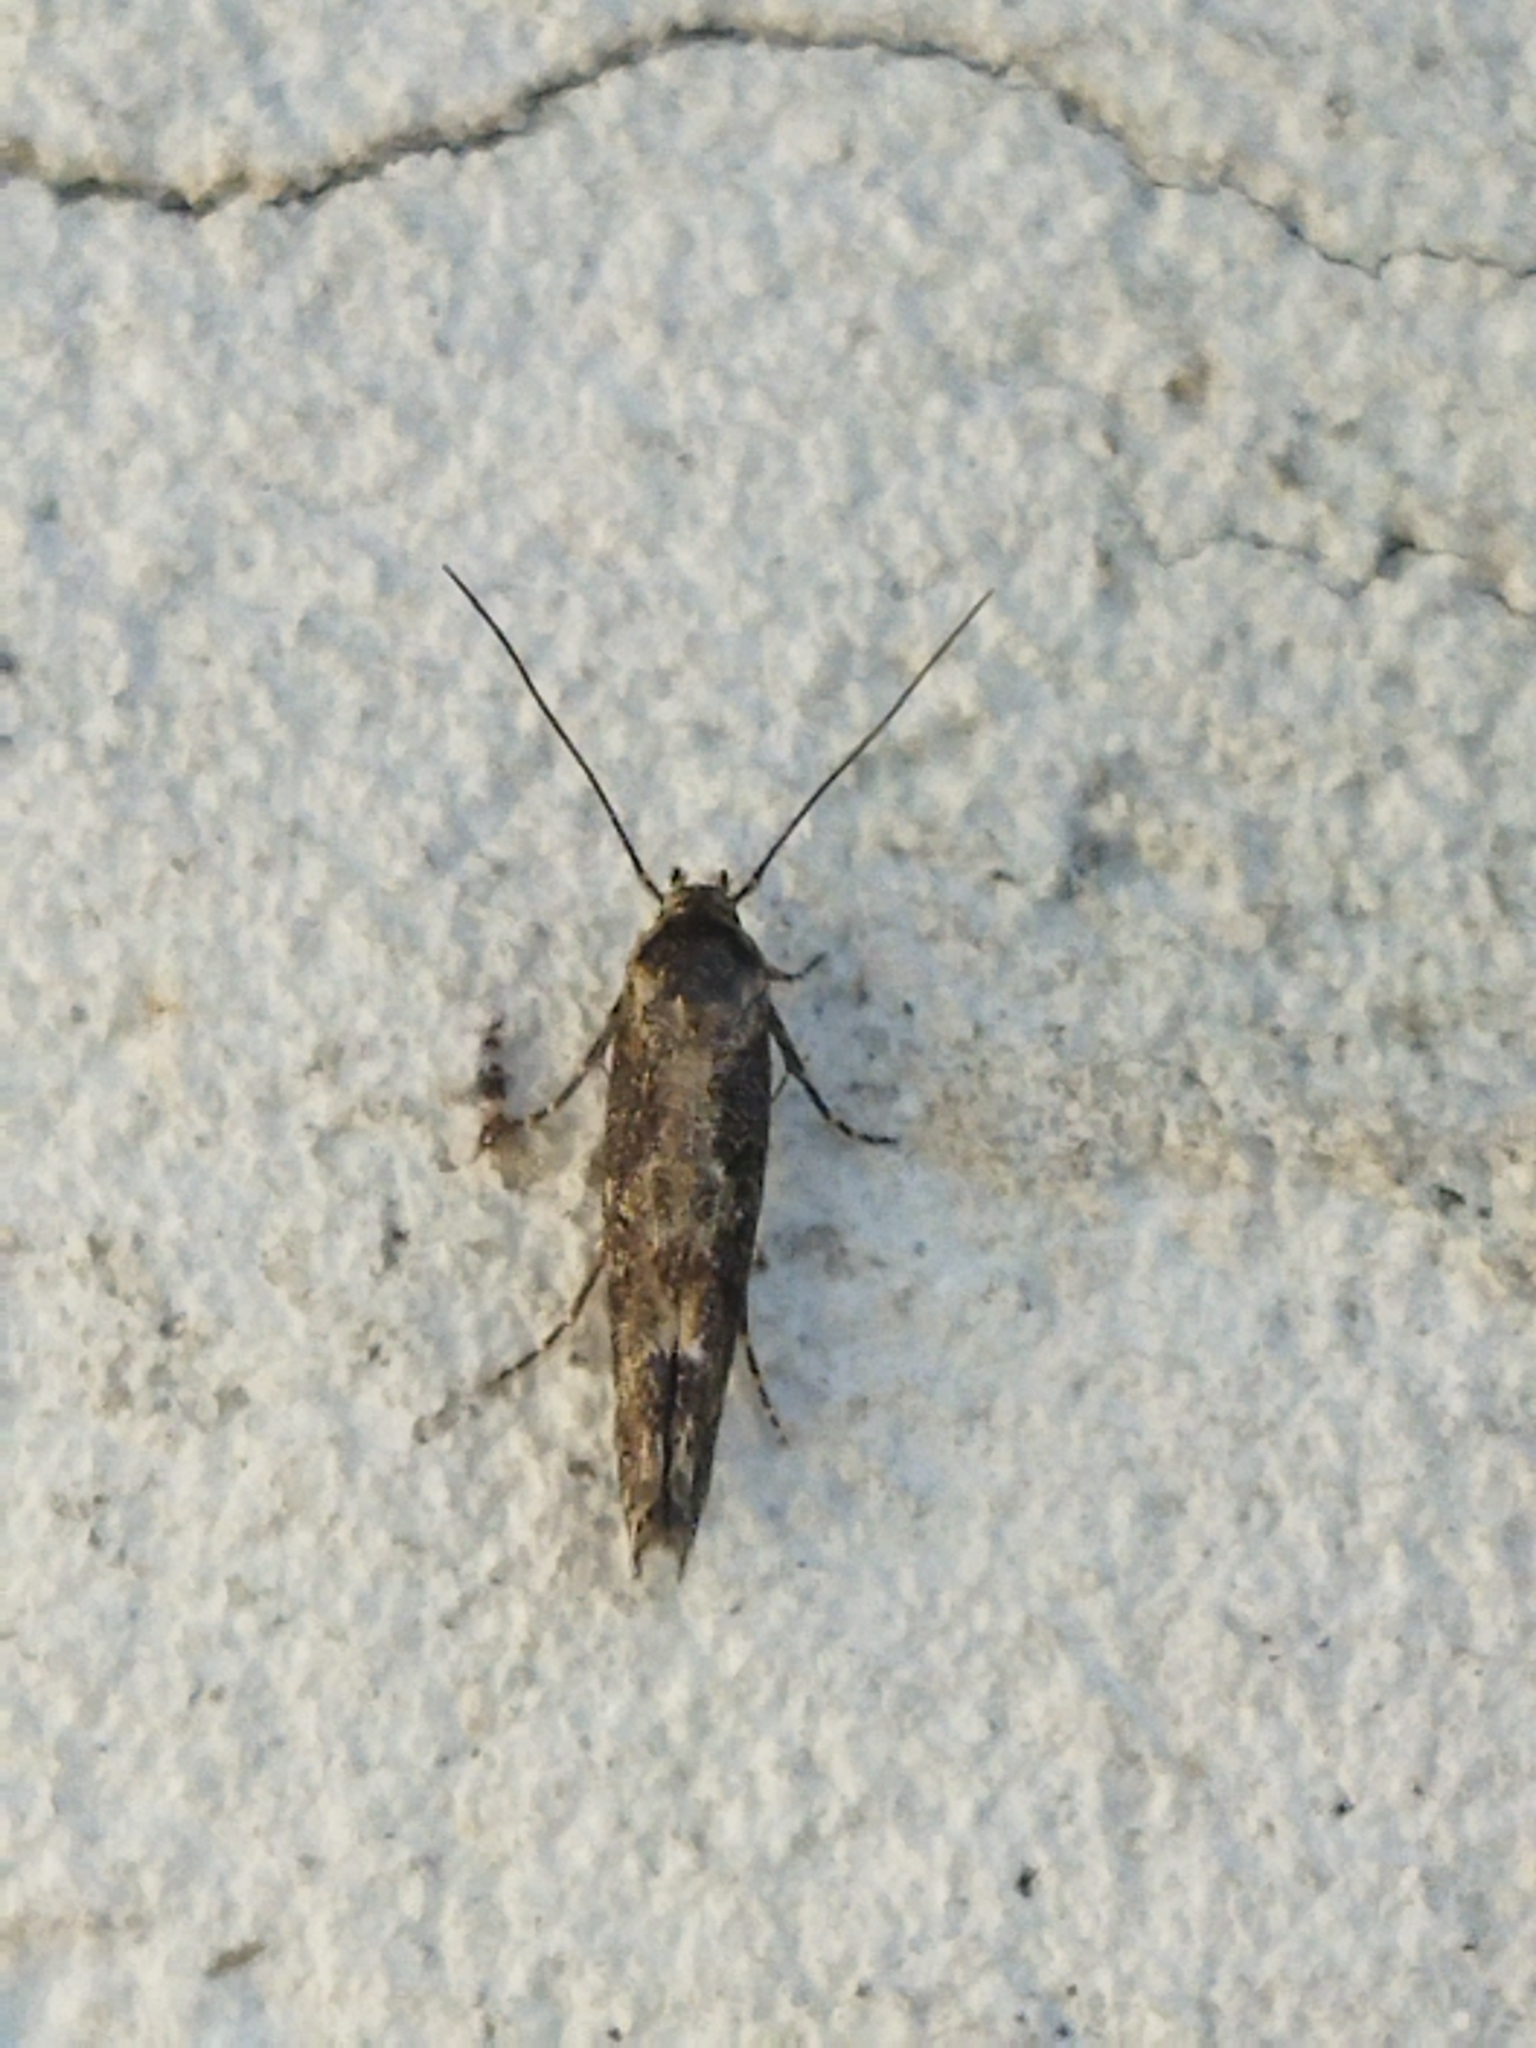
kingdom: Animalia
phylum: Arthropoda
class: Insecta
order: Lepidoptera
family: Momphidae
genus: Mompha
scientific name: Mompha subbistrigella
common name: Garden cosmet
